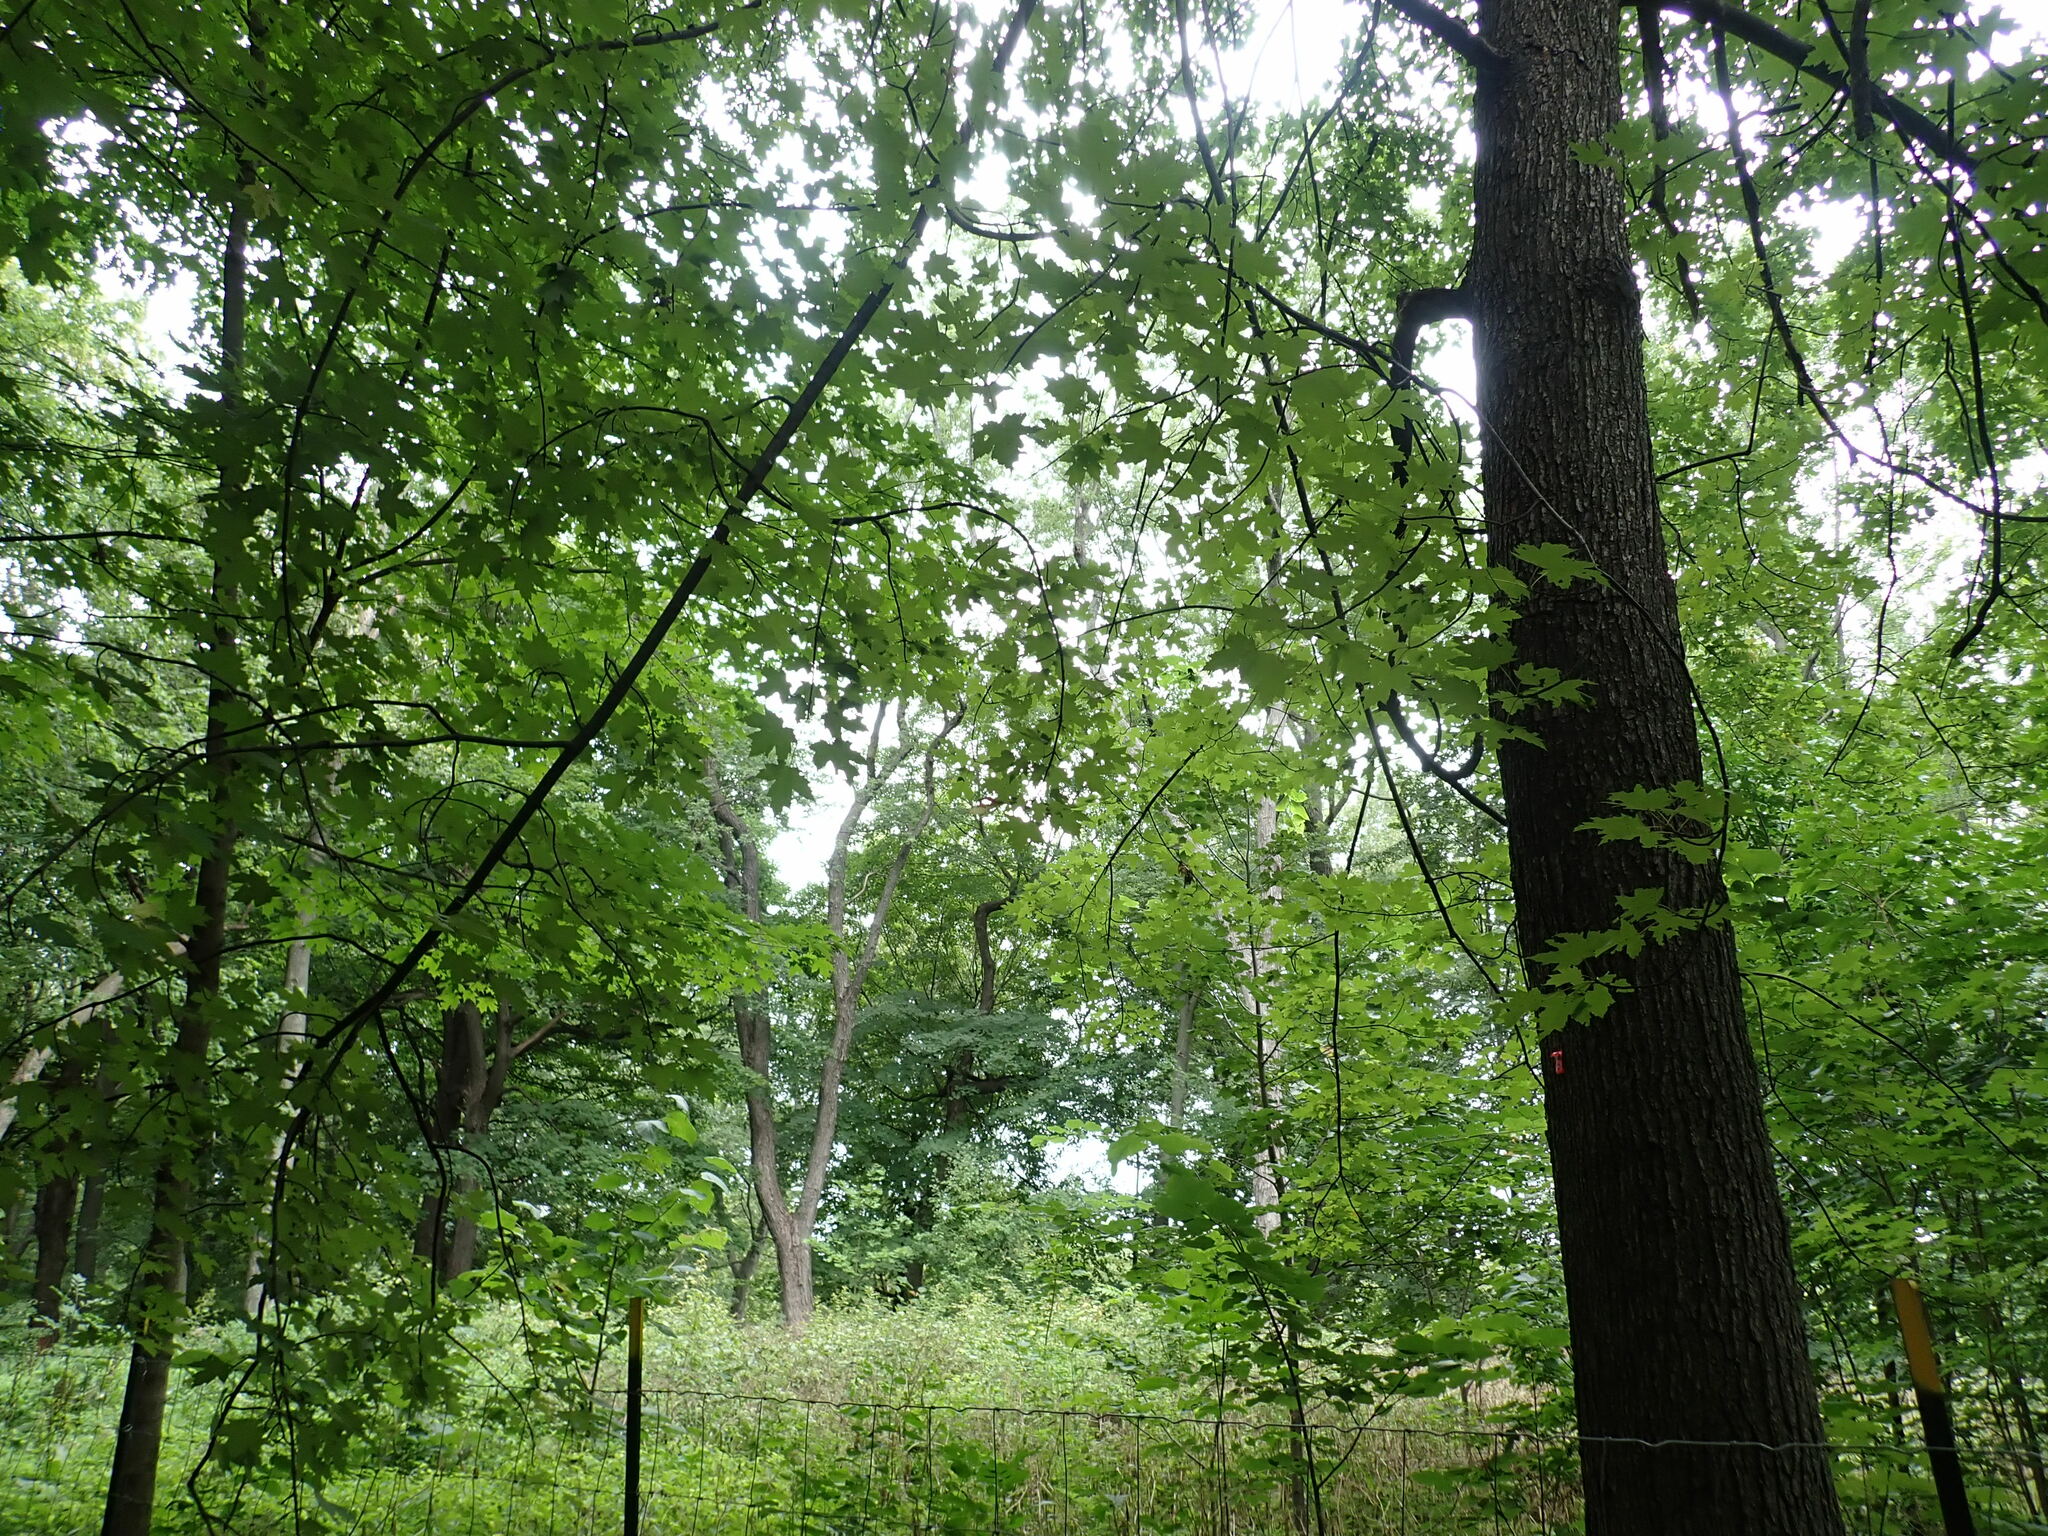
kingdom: Plantae
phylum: Tracheophyta
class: Magnoliopsida
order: Sapindales
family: Sapindaceae
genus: Acer
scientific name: Acer saccharinum
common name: Silver maple
